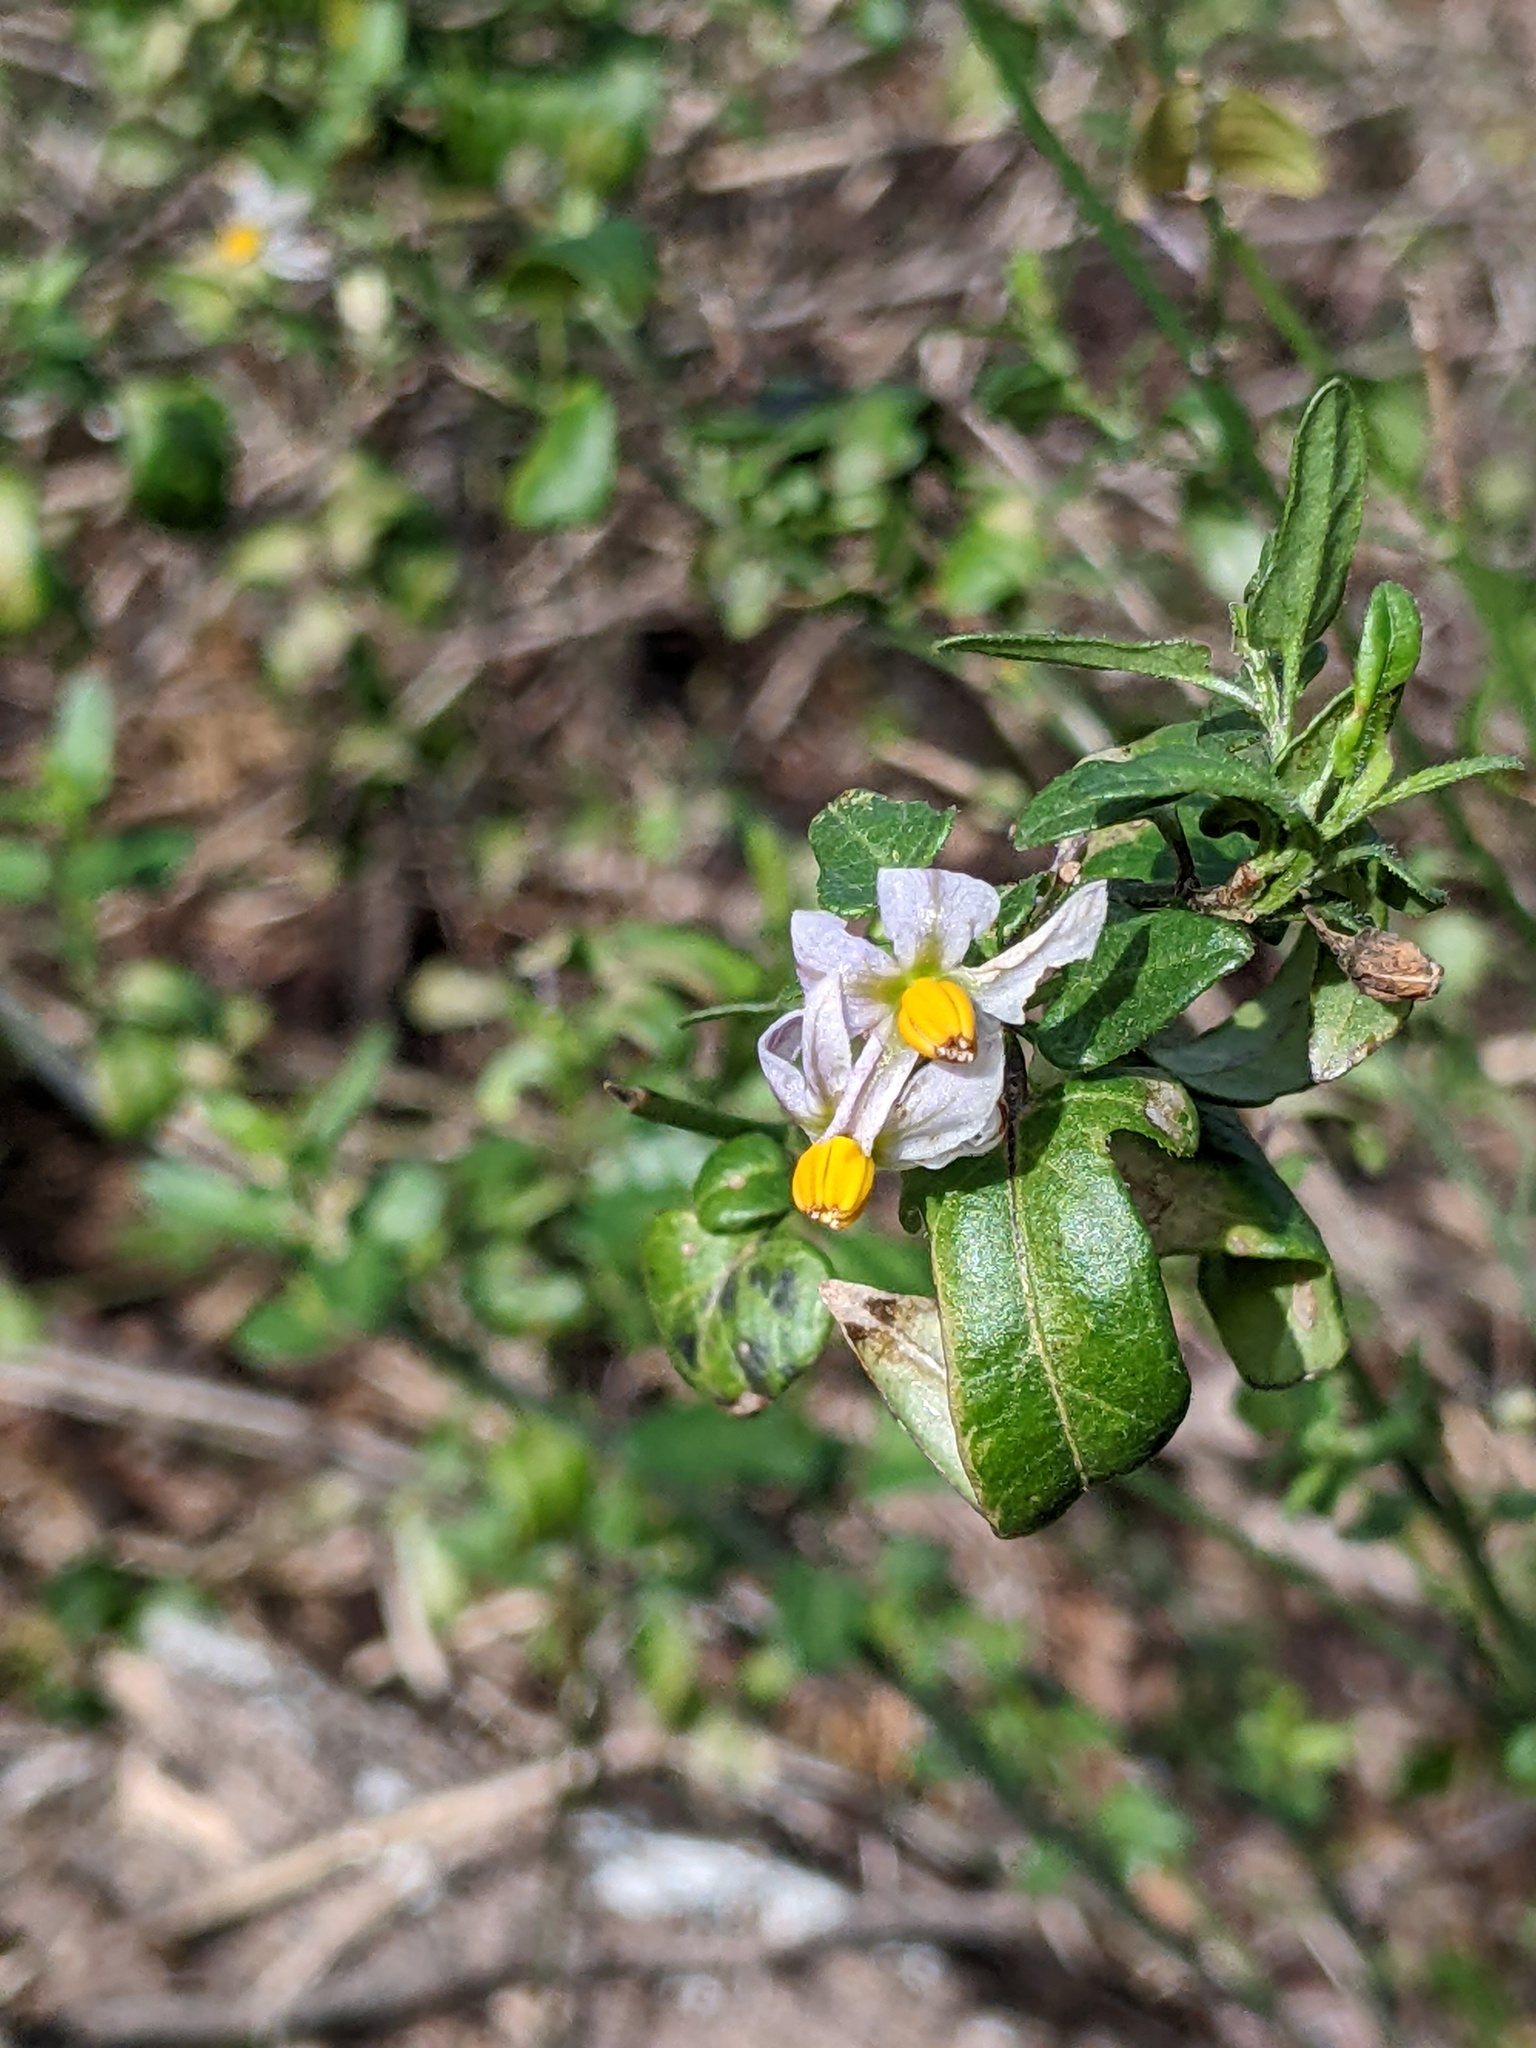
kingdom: Plantae
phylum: Tracheophyta
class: Magnoliopsida
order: Solanales
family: Solanaceae
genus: Solanum
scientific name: Solanum triquetrum
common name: Texas nightshade
